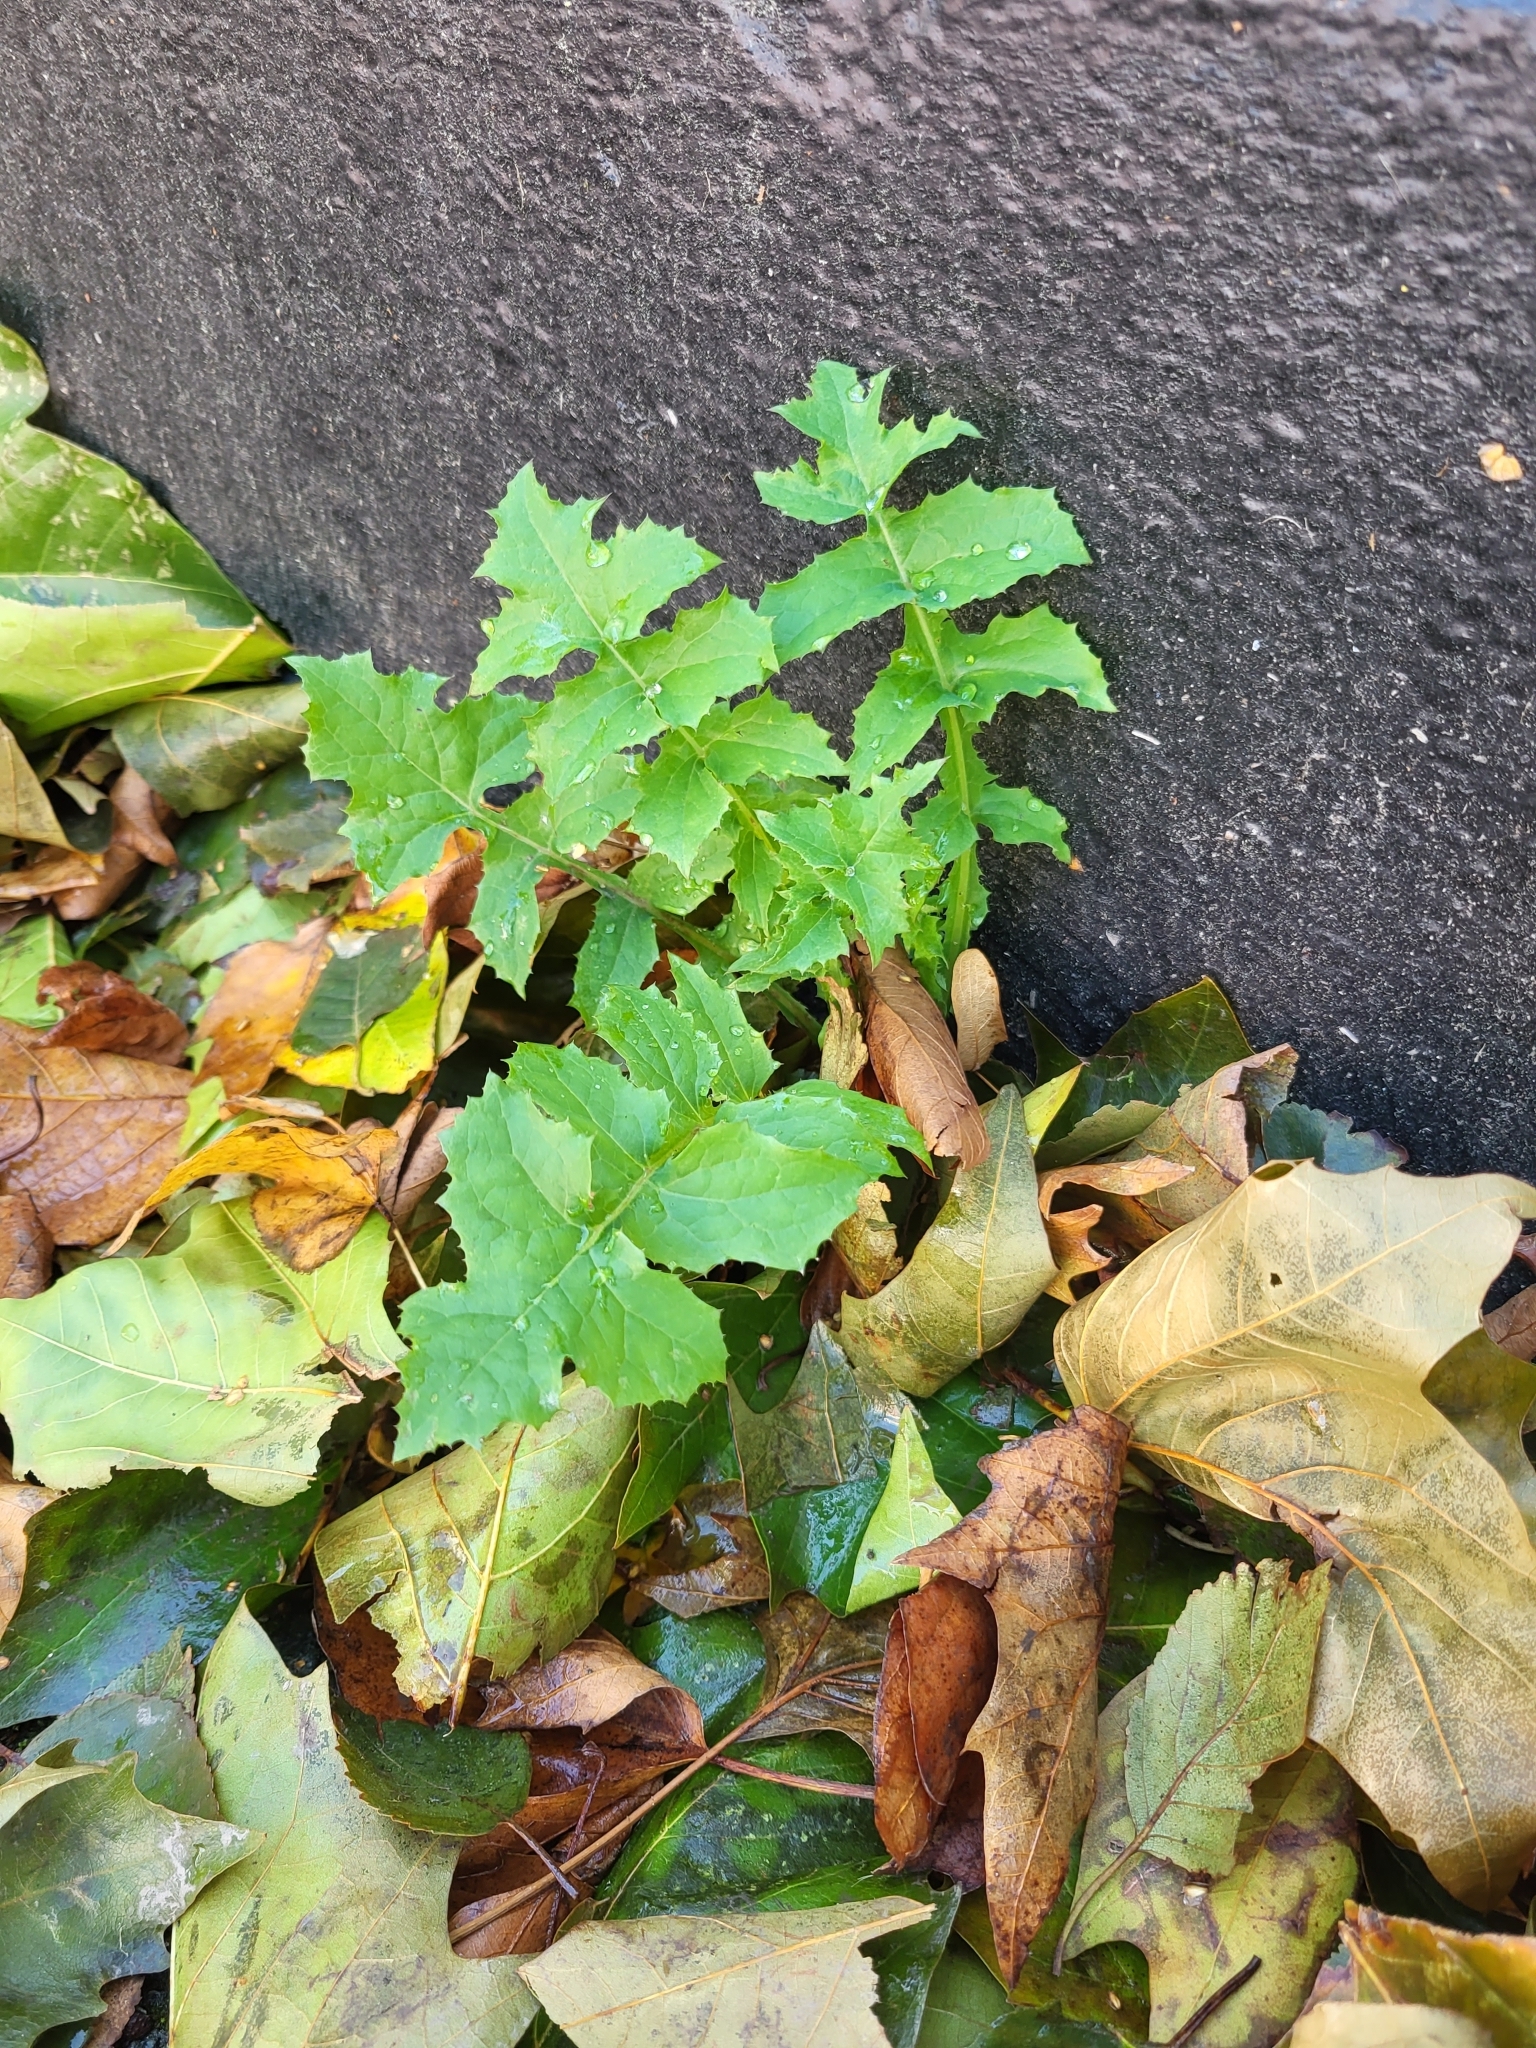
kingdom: Plantae
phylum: Tracheophyta
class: Magnoliopsida
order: Asterales
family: Asteraceae
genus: Sonchus
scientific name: Sonchus oleraceus
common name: Common sowthistle
